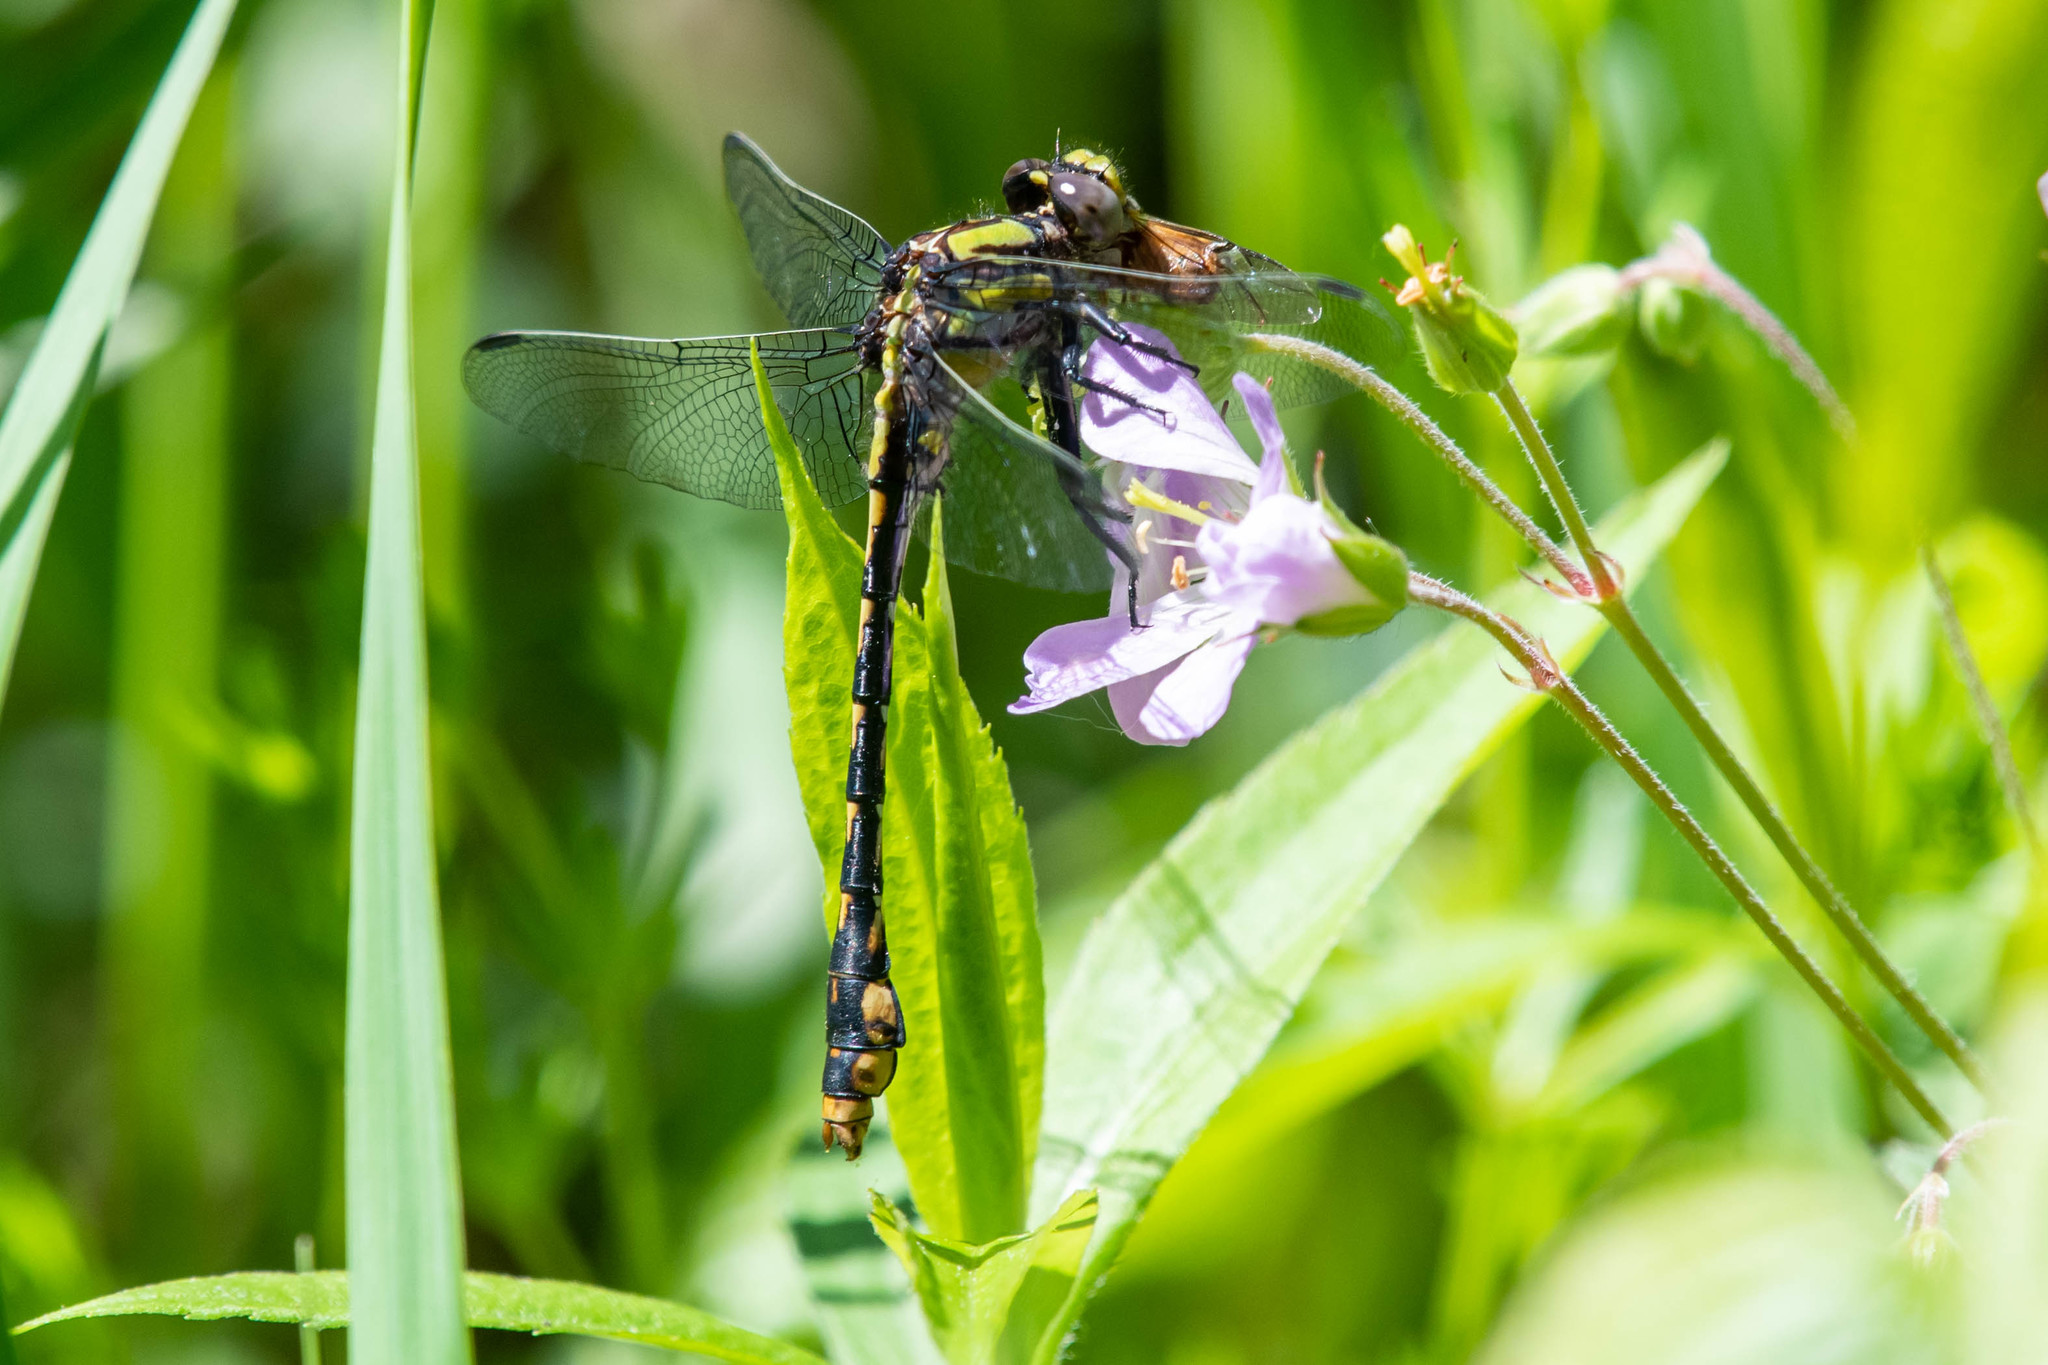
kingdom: Animalia
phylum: Arthropoda
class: Insecta
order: Odonata
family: Gomphidae
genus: Ophiogomphus
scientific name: Ophiogomphus susbehcha
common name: Saint croix snaketail
